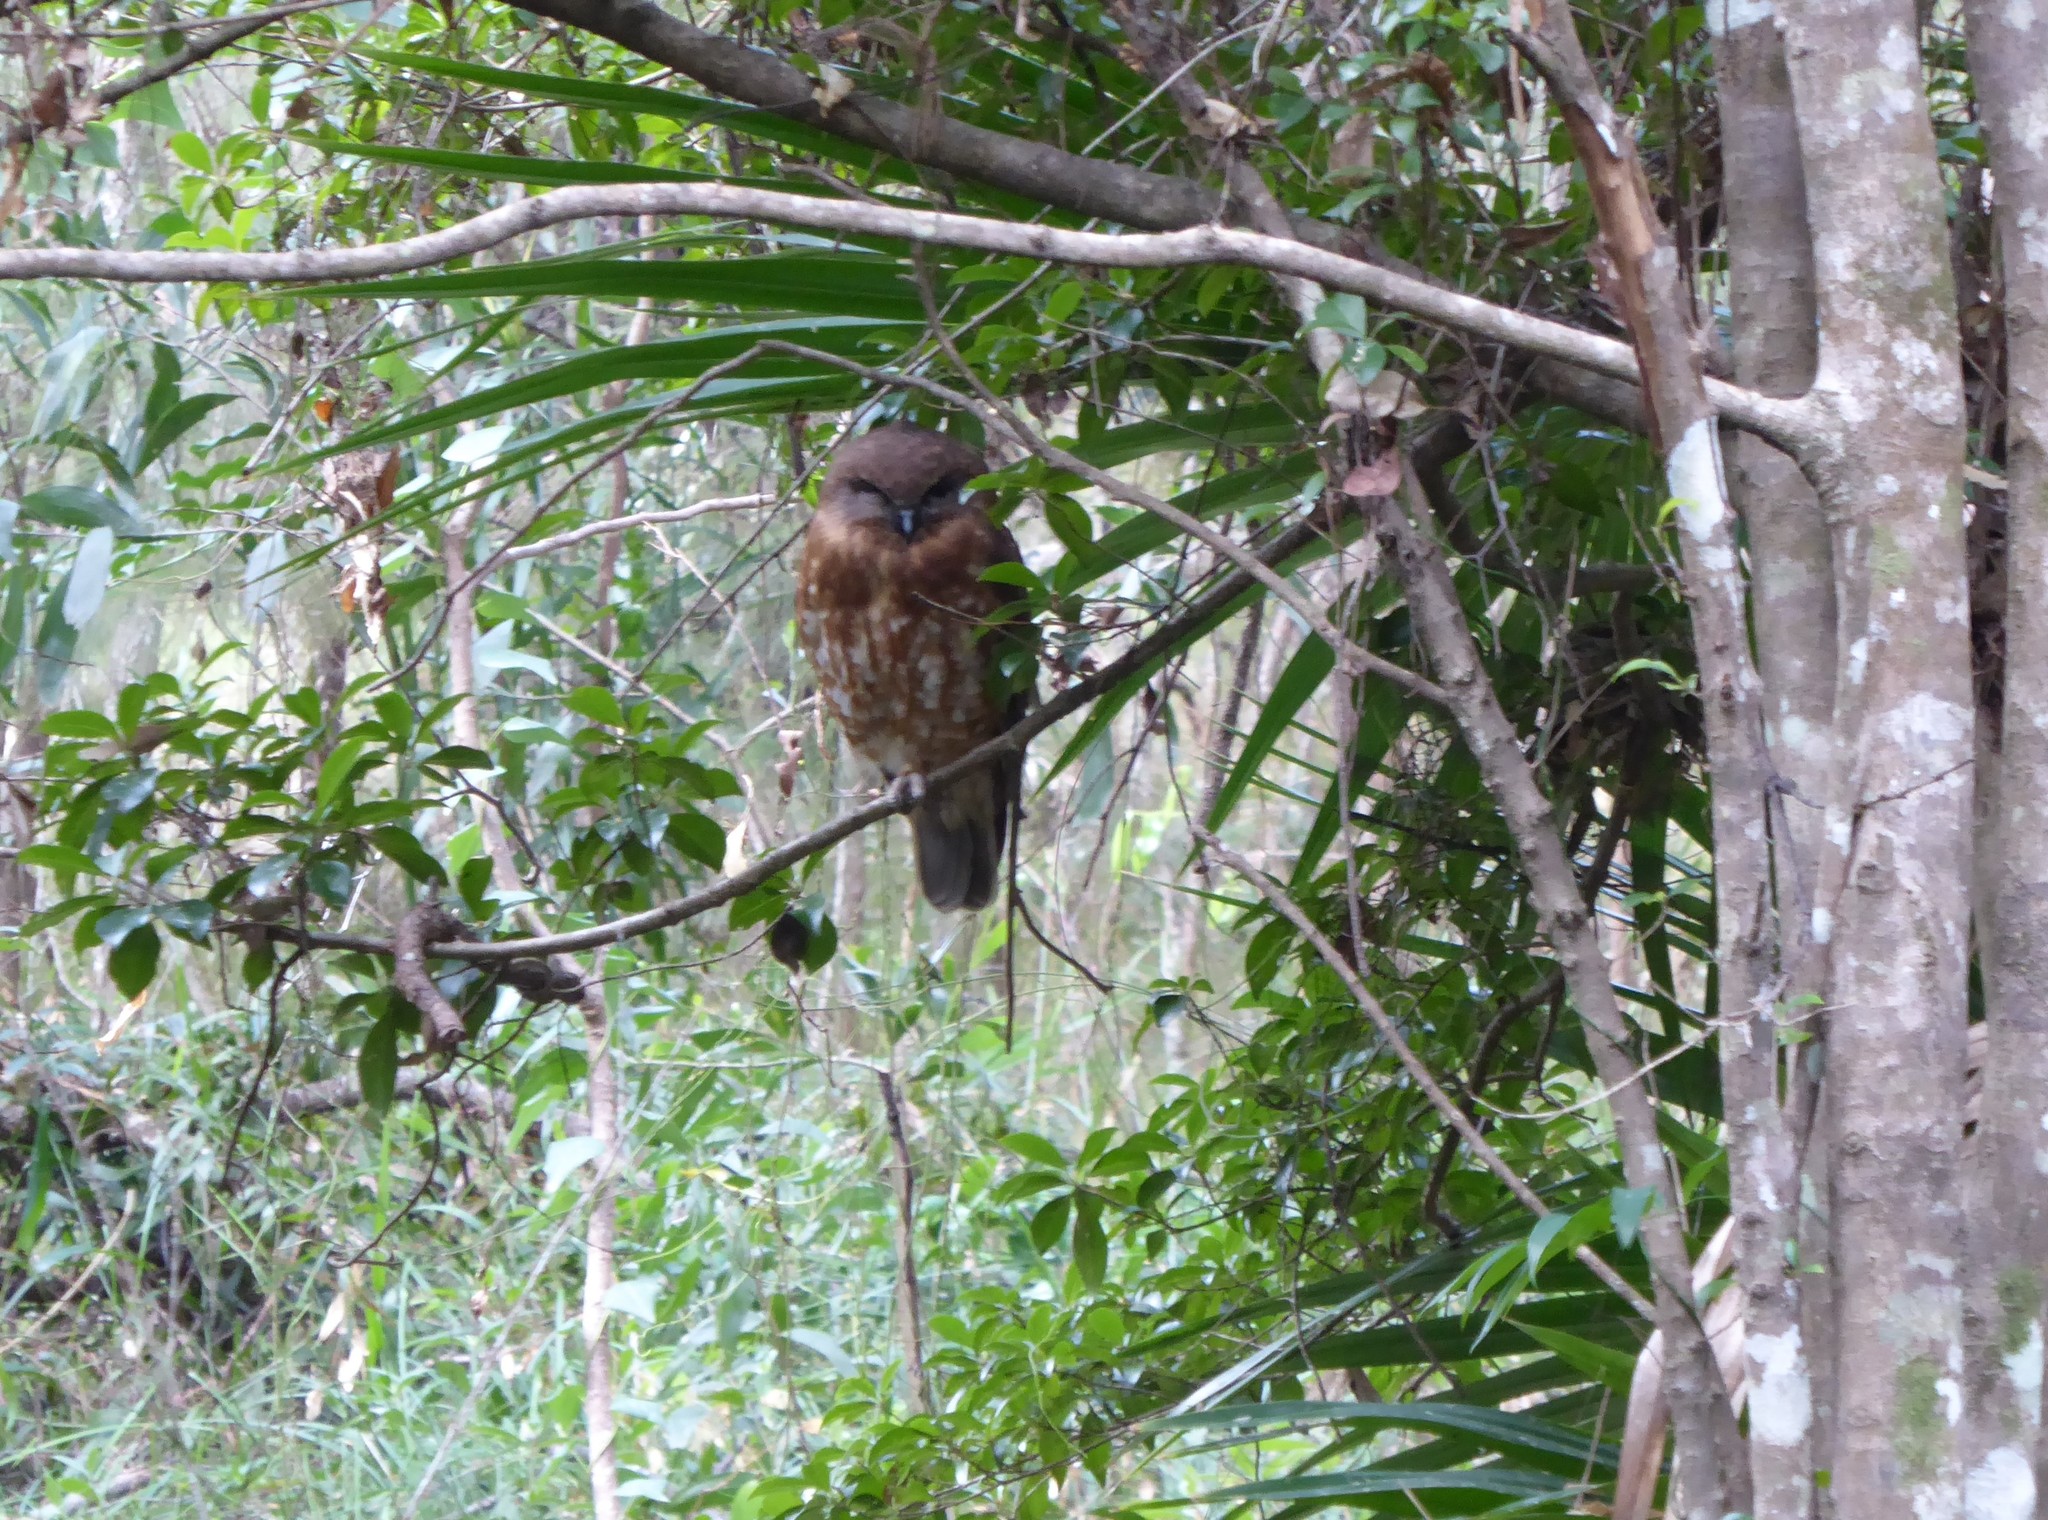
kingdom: Animalia
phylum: Chordata
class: Aves
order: Strigiformes
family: Strigidae
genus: Ninox
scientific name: Ninox boobook
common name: Southern boobook
